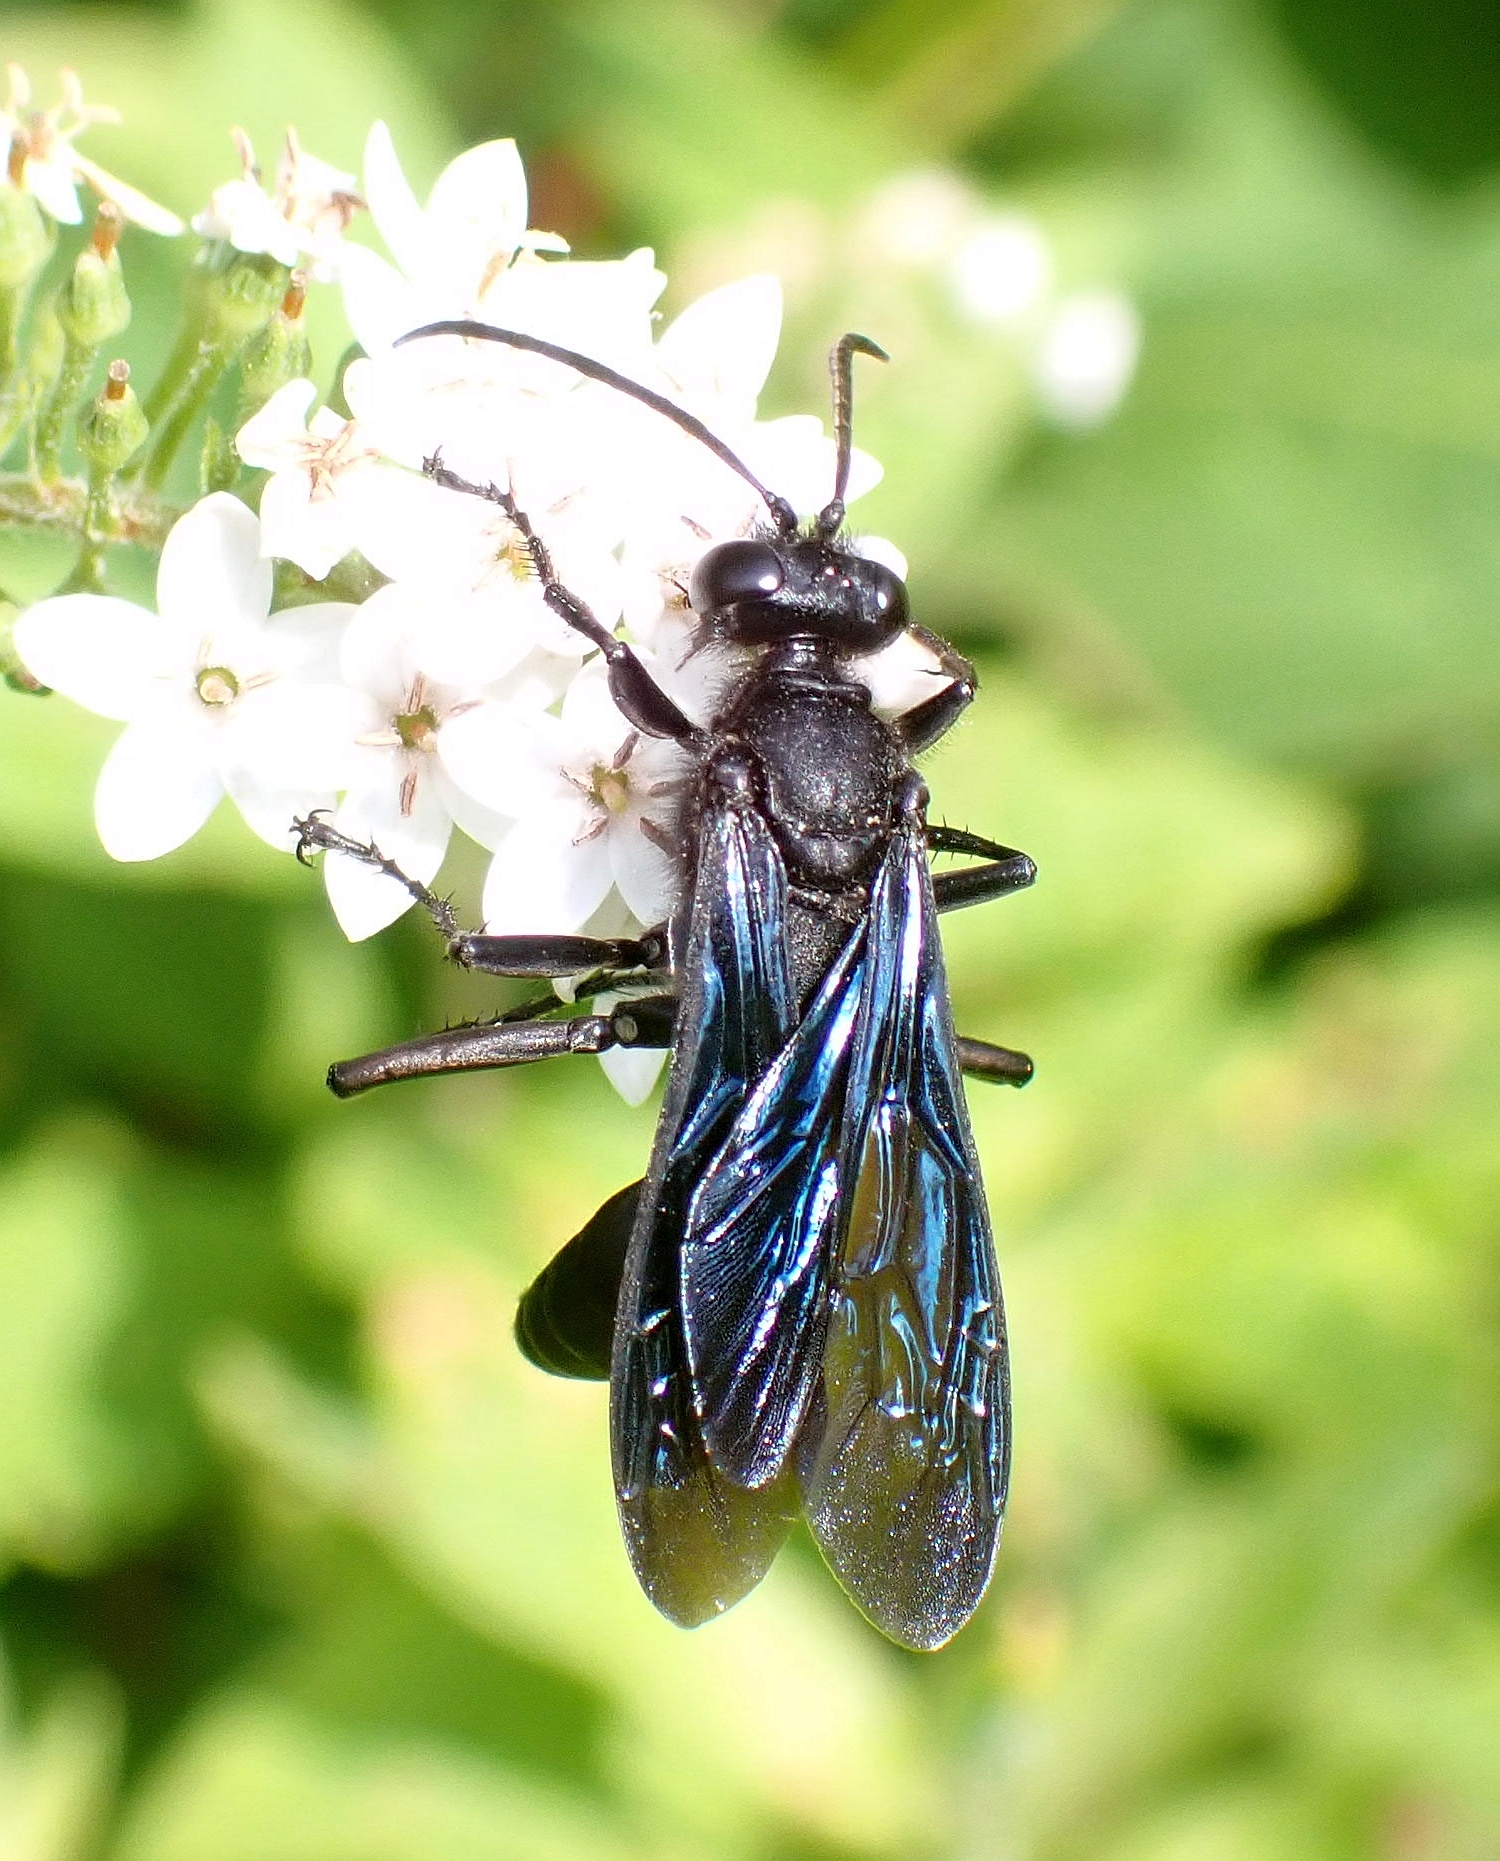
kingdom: Animalia
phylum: Arthropoda
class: Insecta
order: Hymenoptera
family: Sphecidae
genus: Sphex
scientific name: Sphex pensylvanicus
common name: Great black digger wasp
